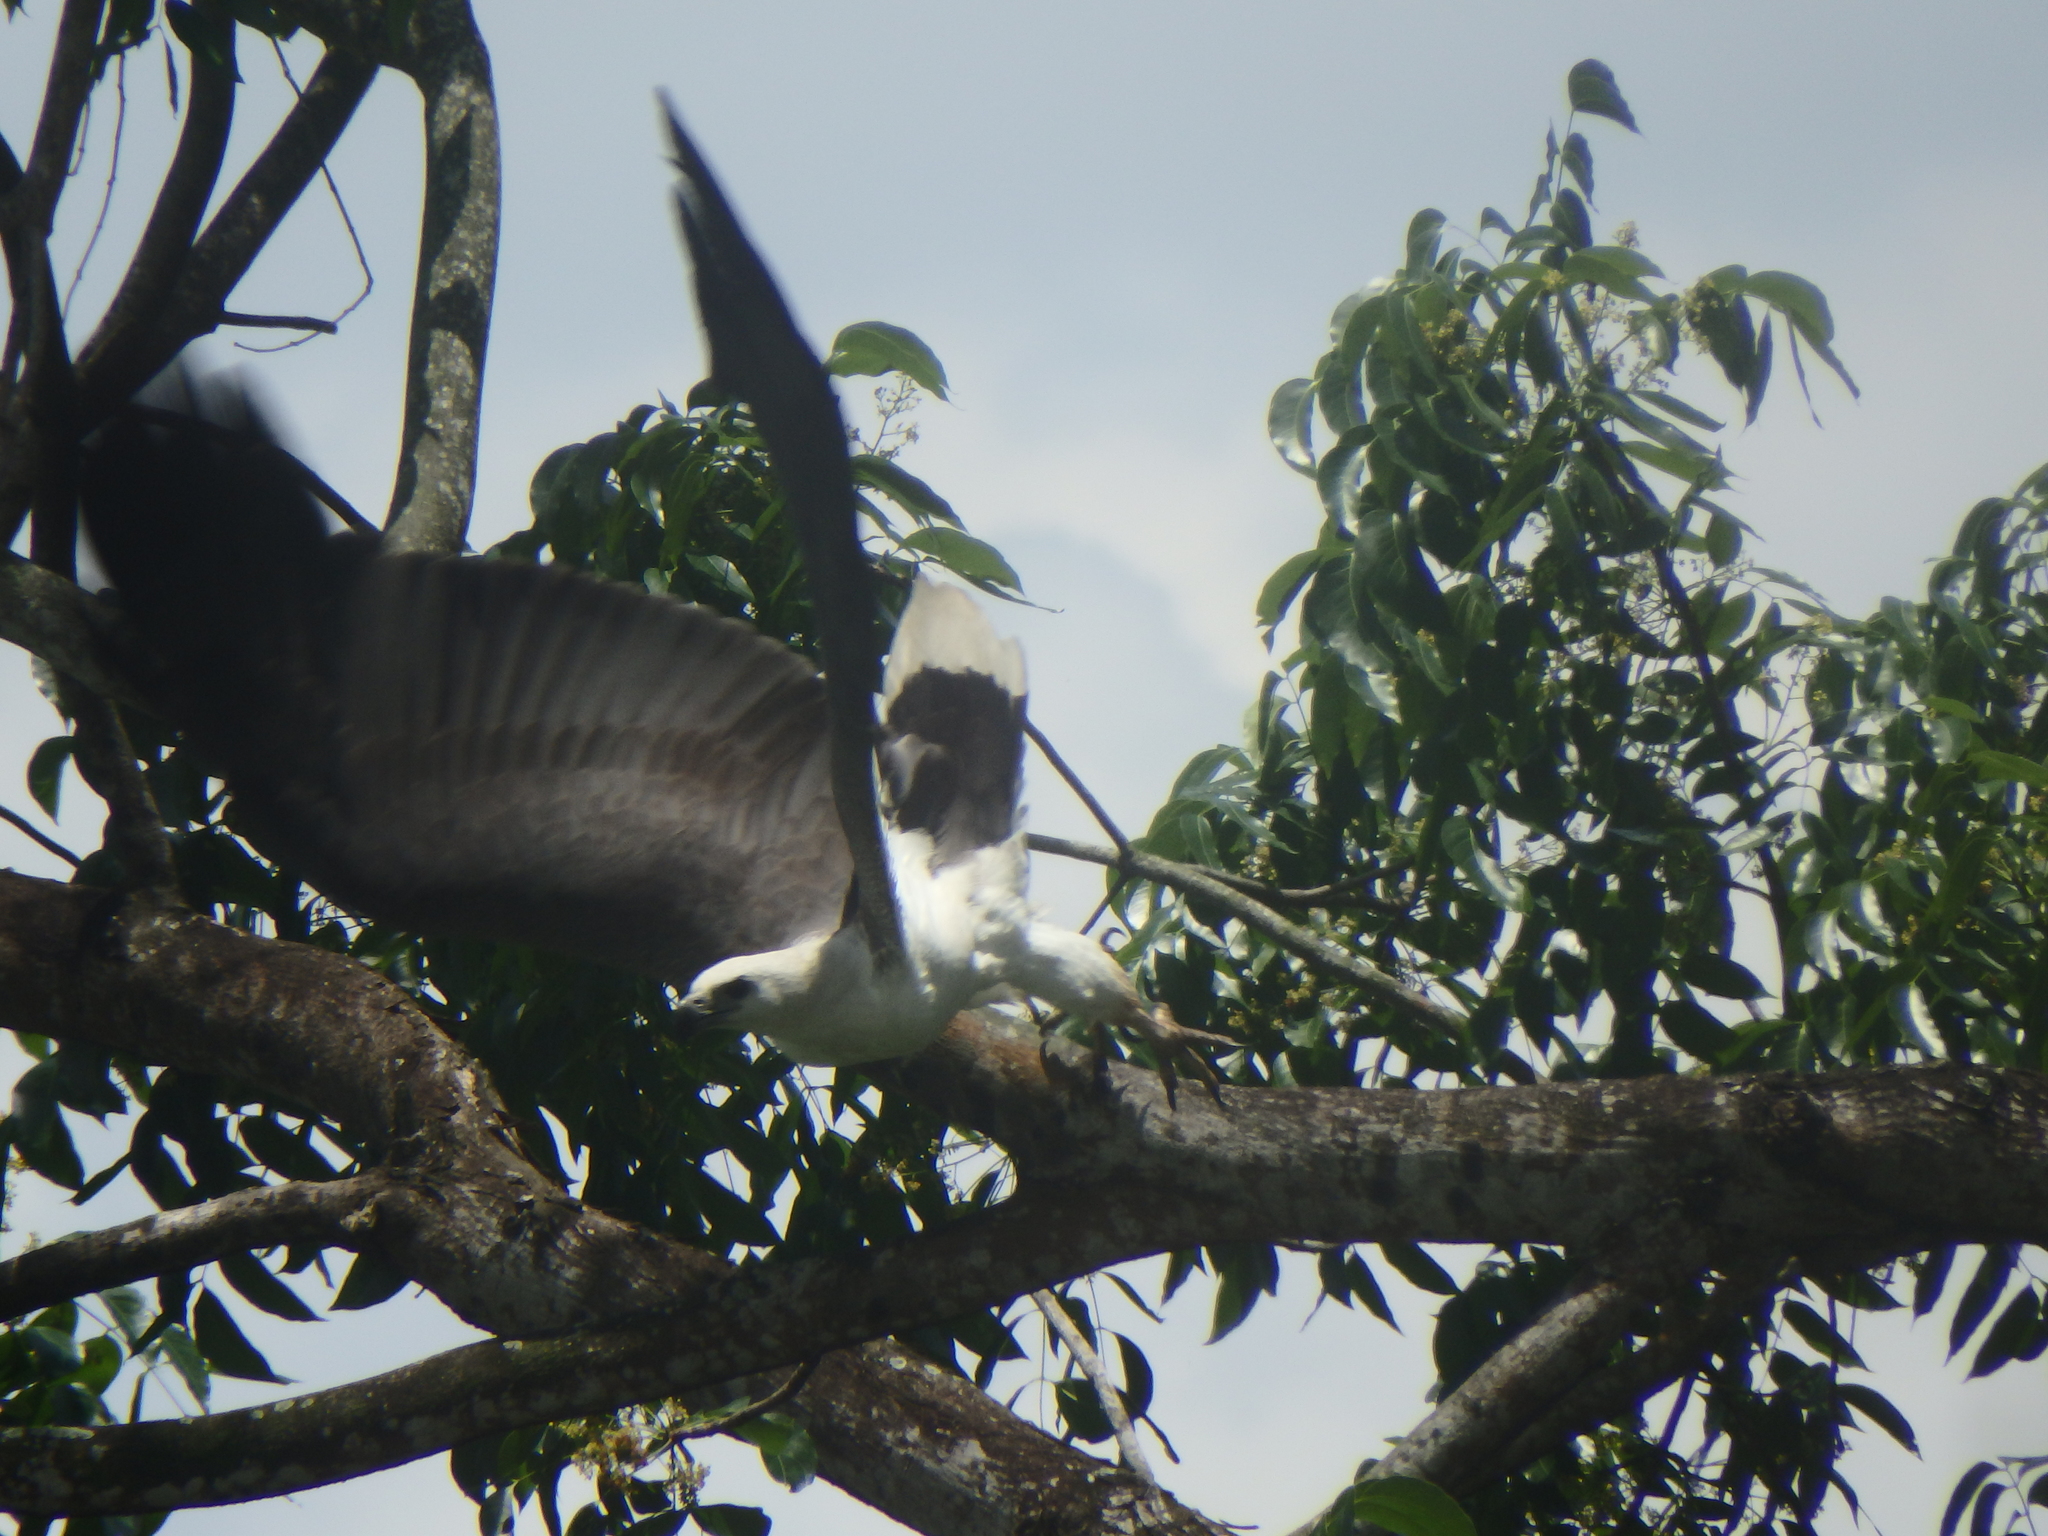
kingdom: Animalia
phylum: Chordata
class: Aves
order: Accipitriformes
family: Accipitridae
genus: Haliaeetus
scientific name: Haliaeetus leucogaster
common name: White-bellied sea eagle
